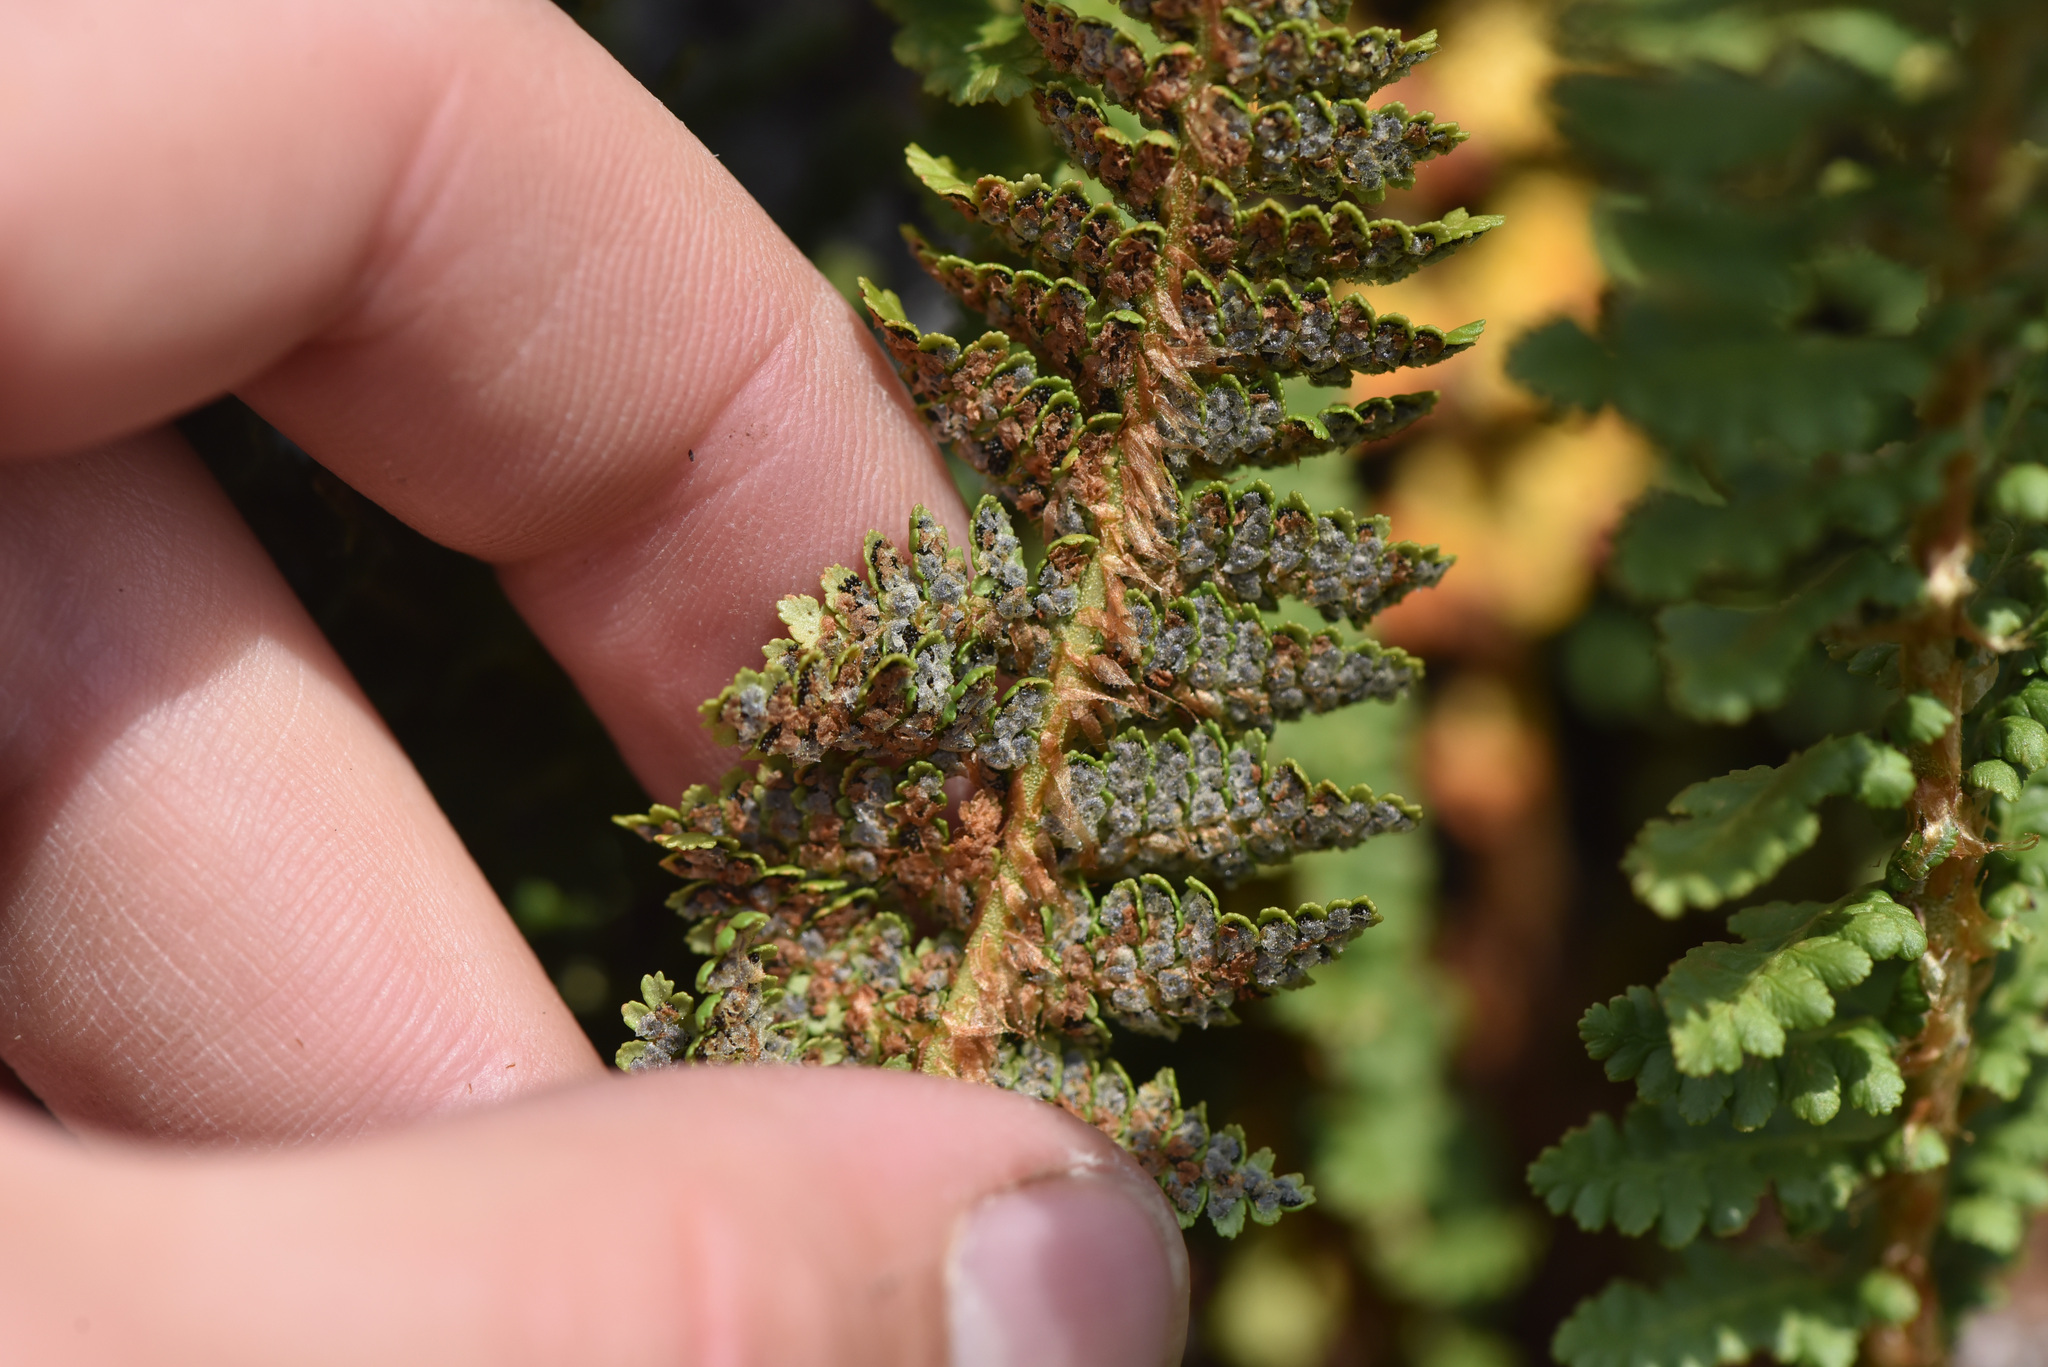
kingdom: Plantae
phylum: Tracheophyta
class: Polypodiopsida
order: Polypodiales
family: Dryopteridaceae
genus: Dryopteris
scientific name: Dryopteris fragrans
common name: Fragrant wood fern
